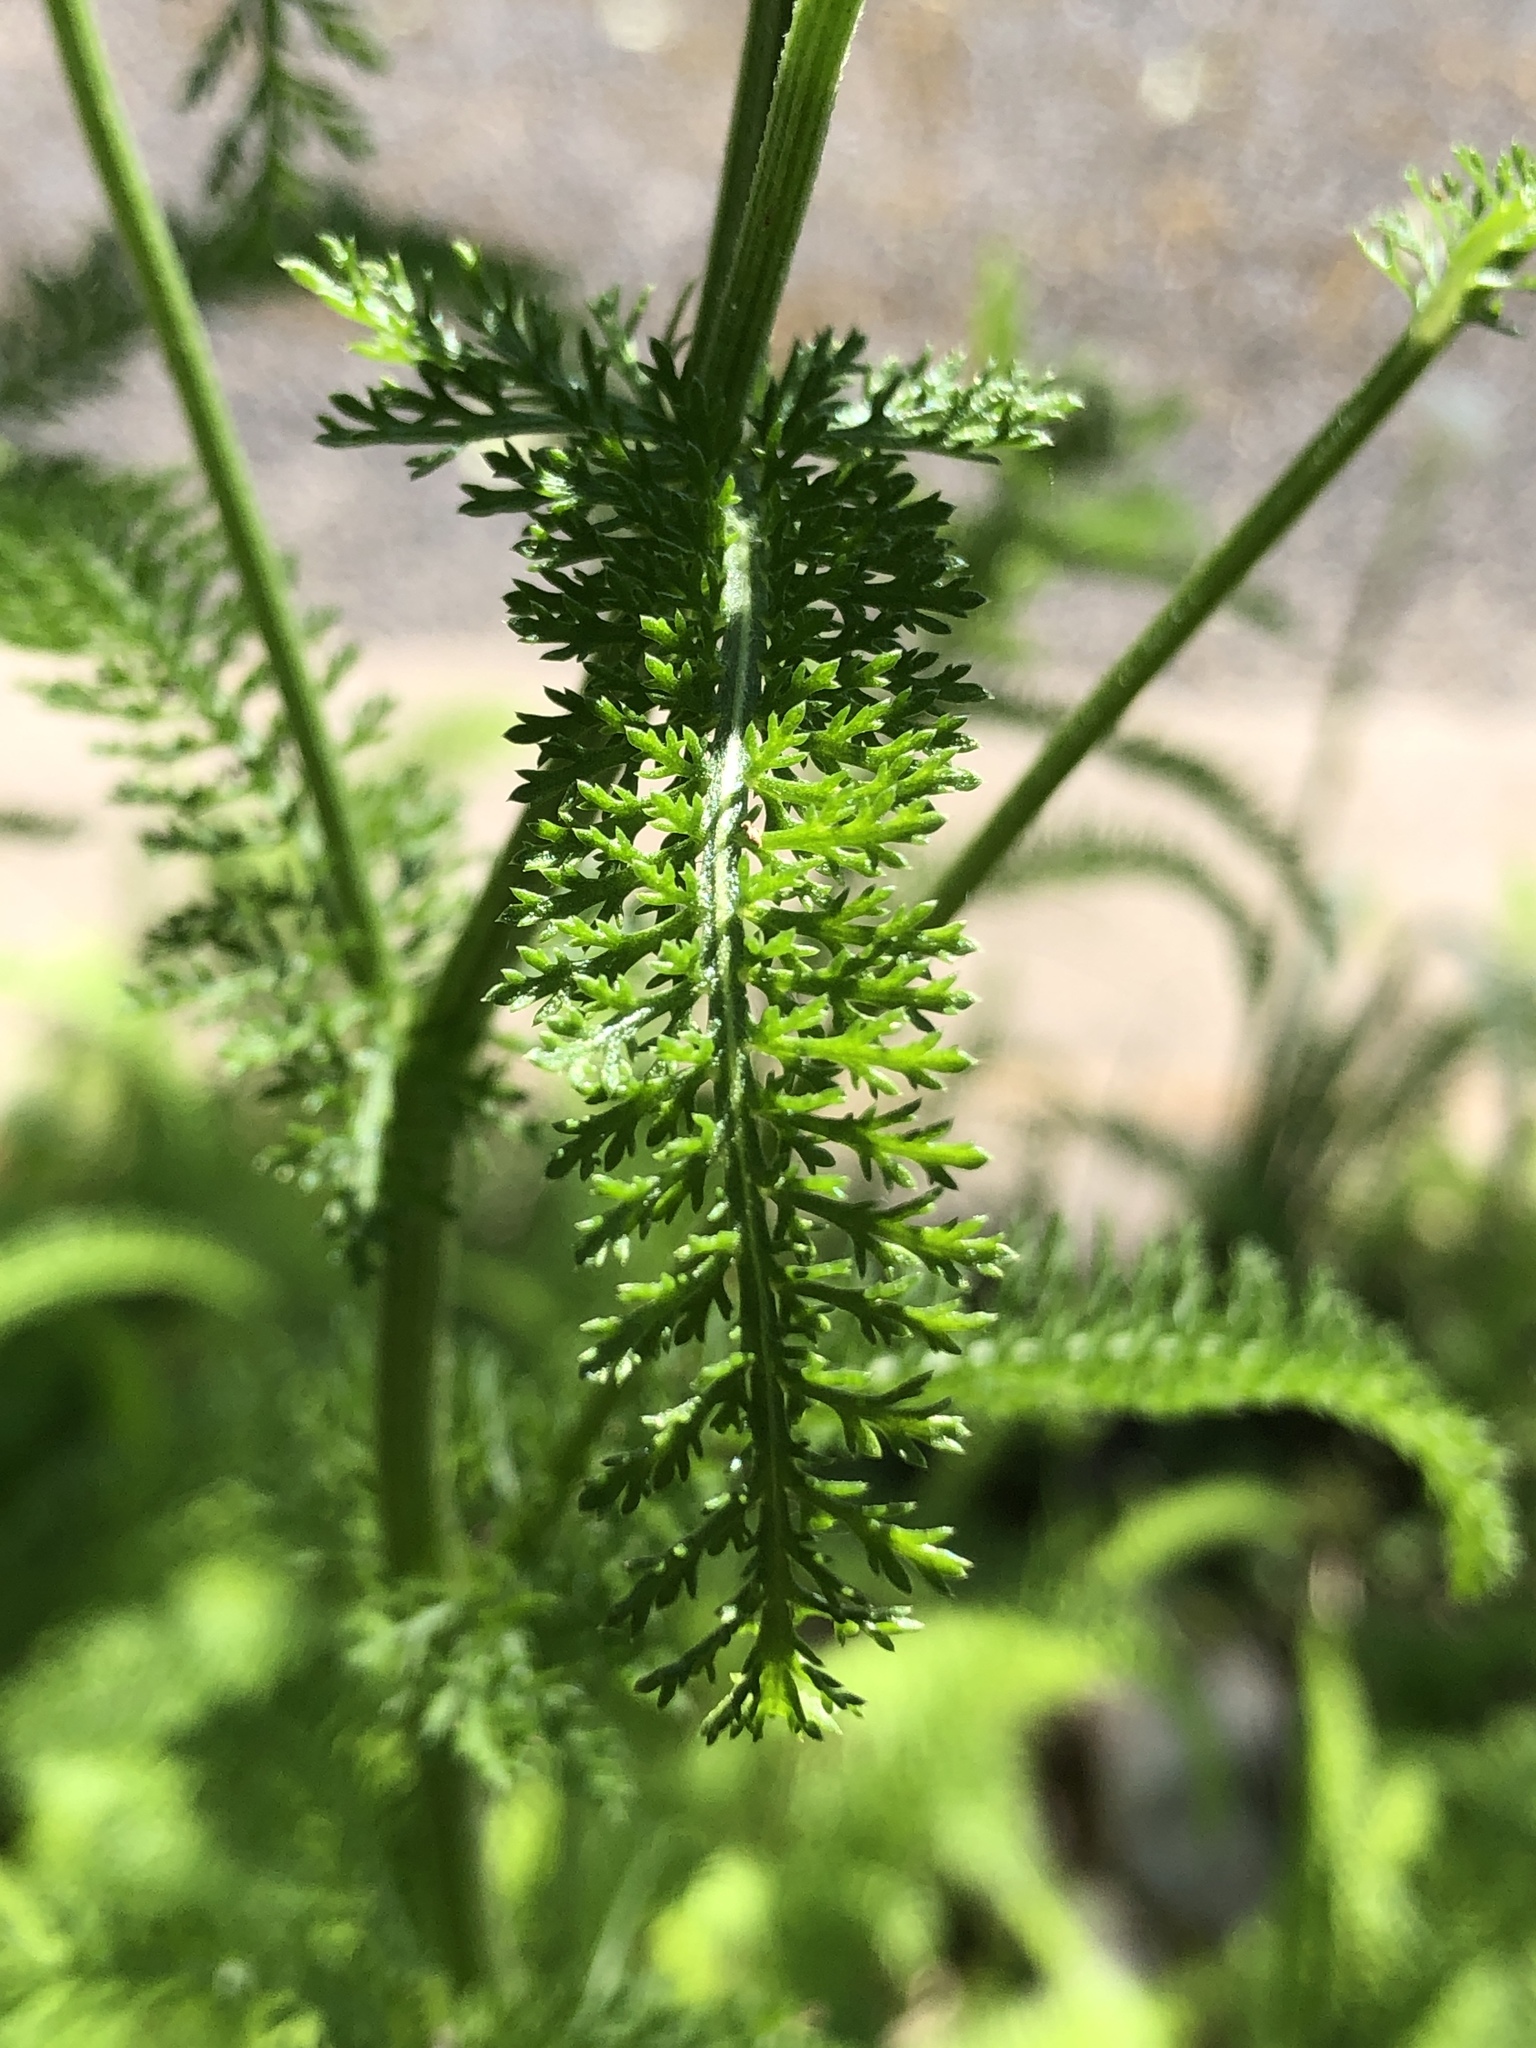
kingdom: Plantae
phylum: Tracheophyta
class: Magnoliopsida
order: Asterales
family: Asteraceae
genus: Achillea
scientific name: Achillea millefolium
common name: Yarrow
